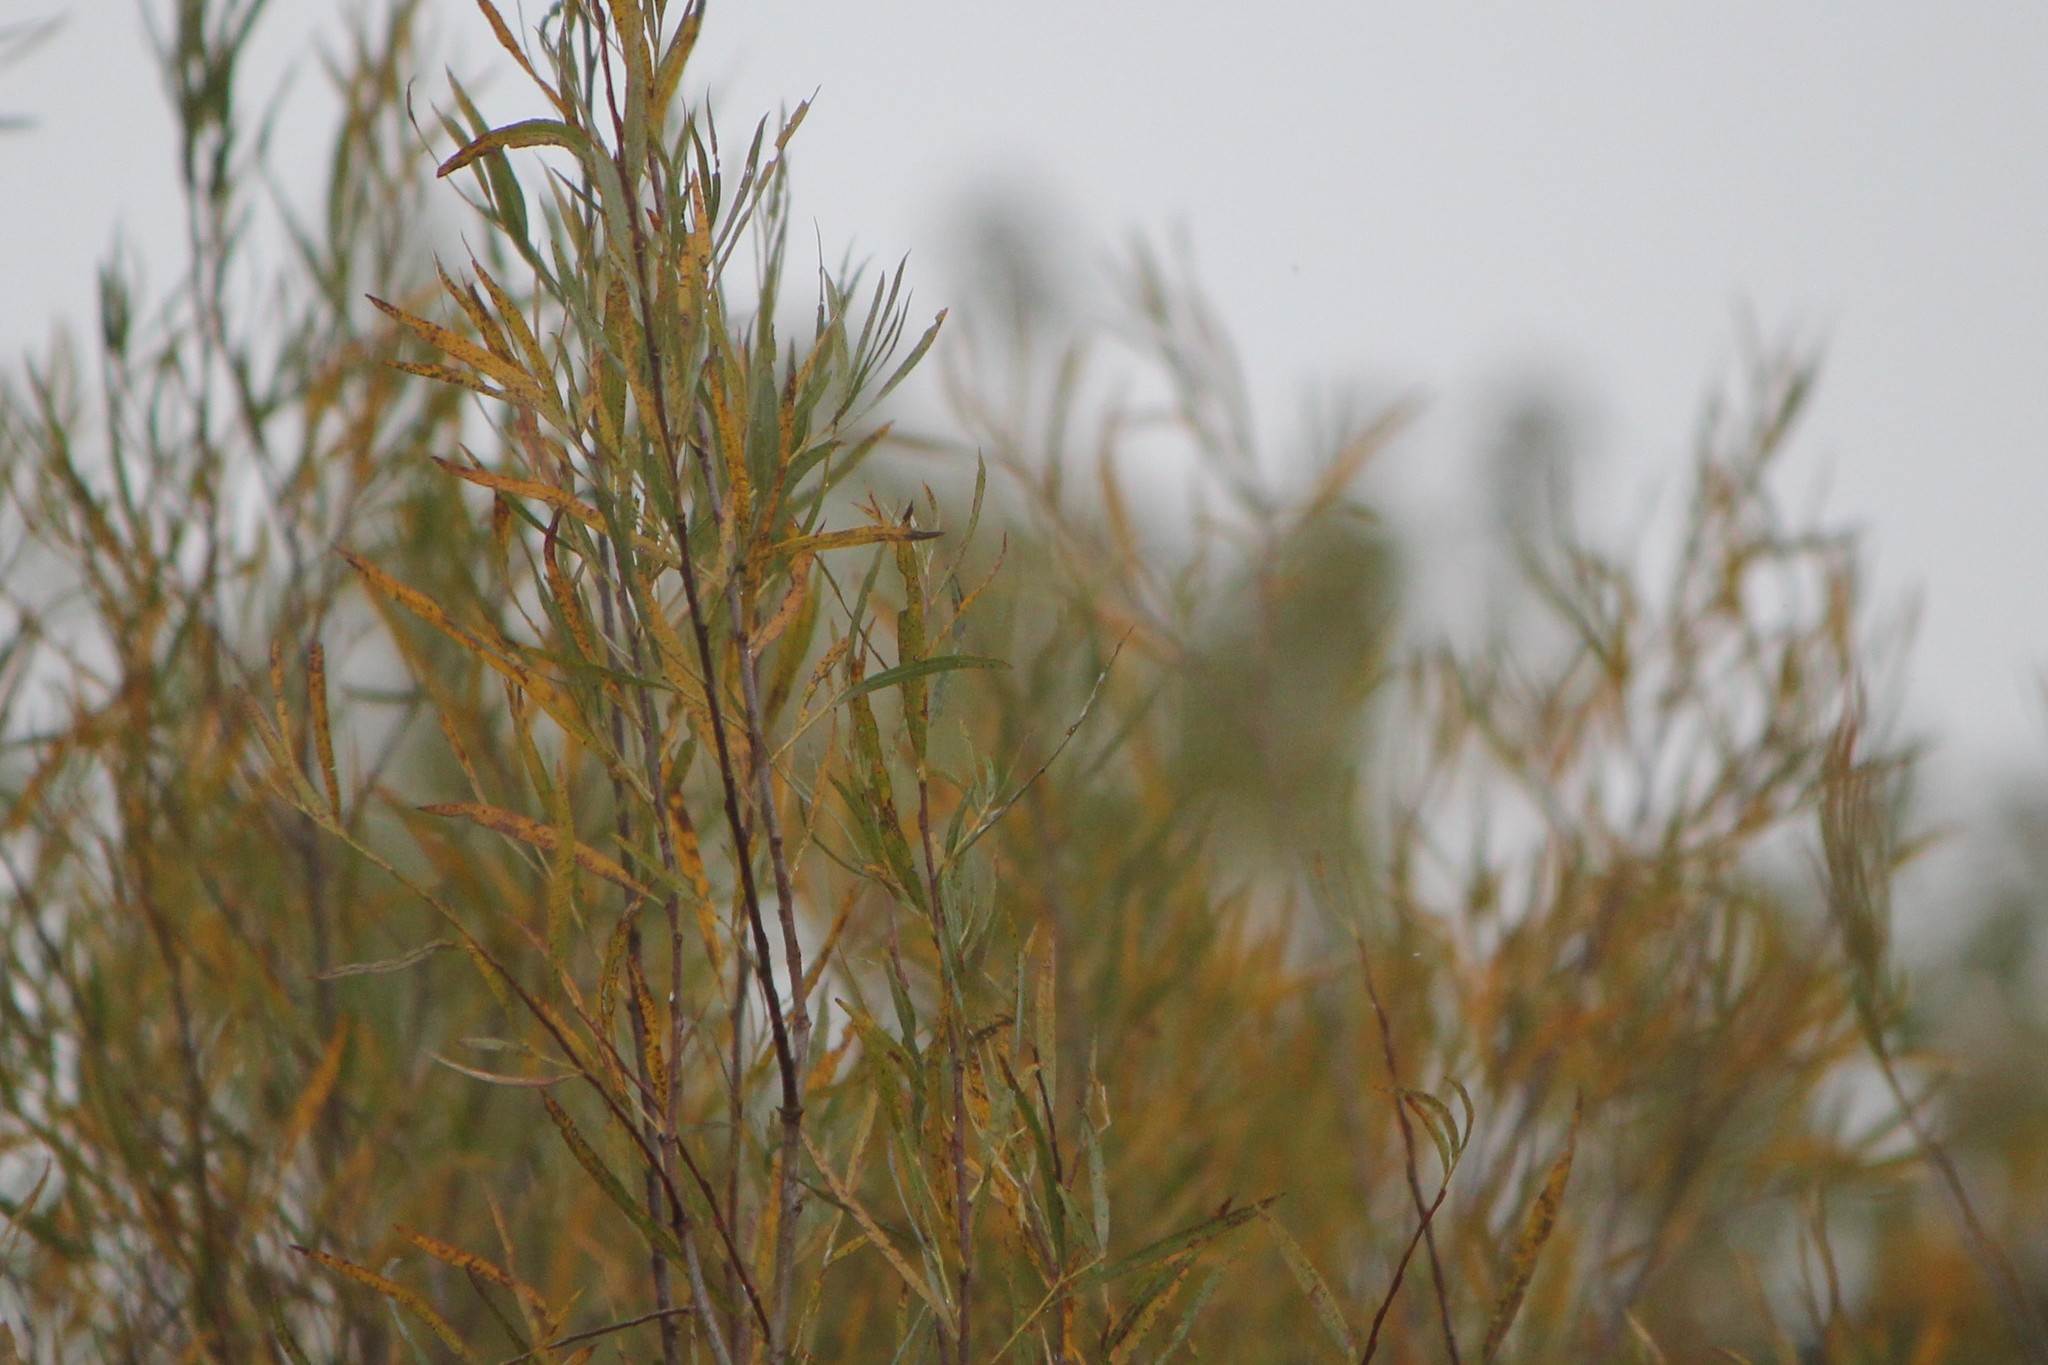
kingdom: Plantae
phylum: Tracheophyta
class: Magnoliopsida
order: Malpighiales
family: Salicaceae
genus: Salix
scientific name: Salix interior
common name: Sandbar willow
